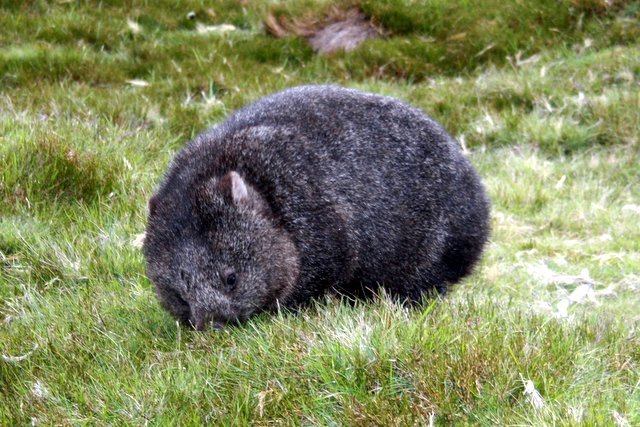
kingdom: Animalia
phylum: Chordata
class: Mammalia
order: Diprotodontia
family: Vombatidae
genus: Vombatus
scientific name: Vombatus ursinus
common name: Common wombat
